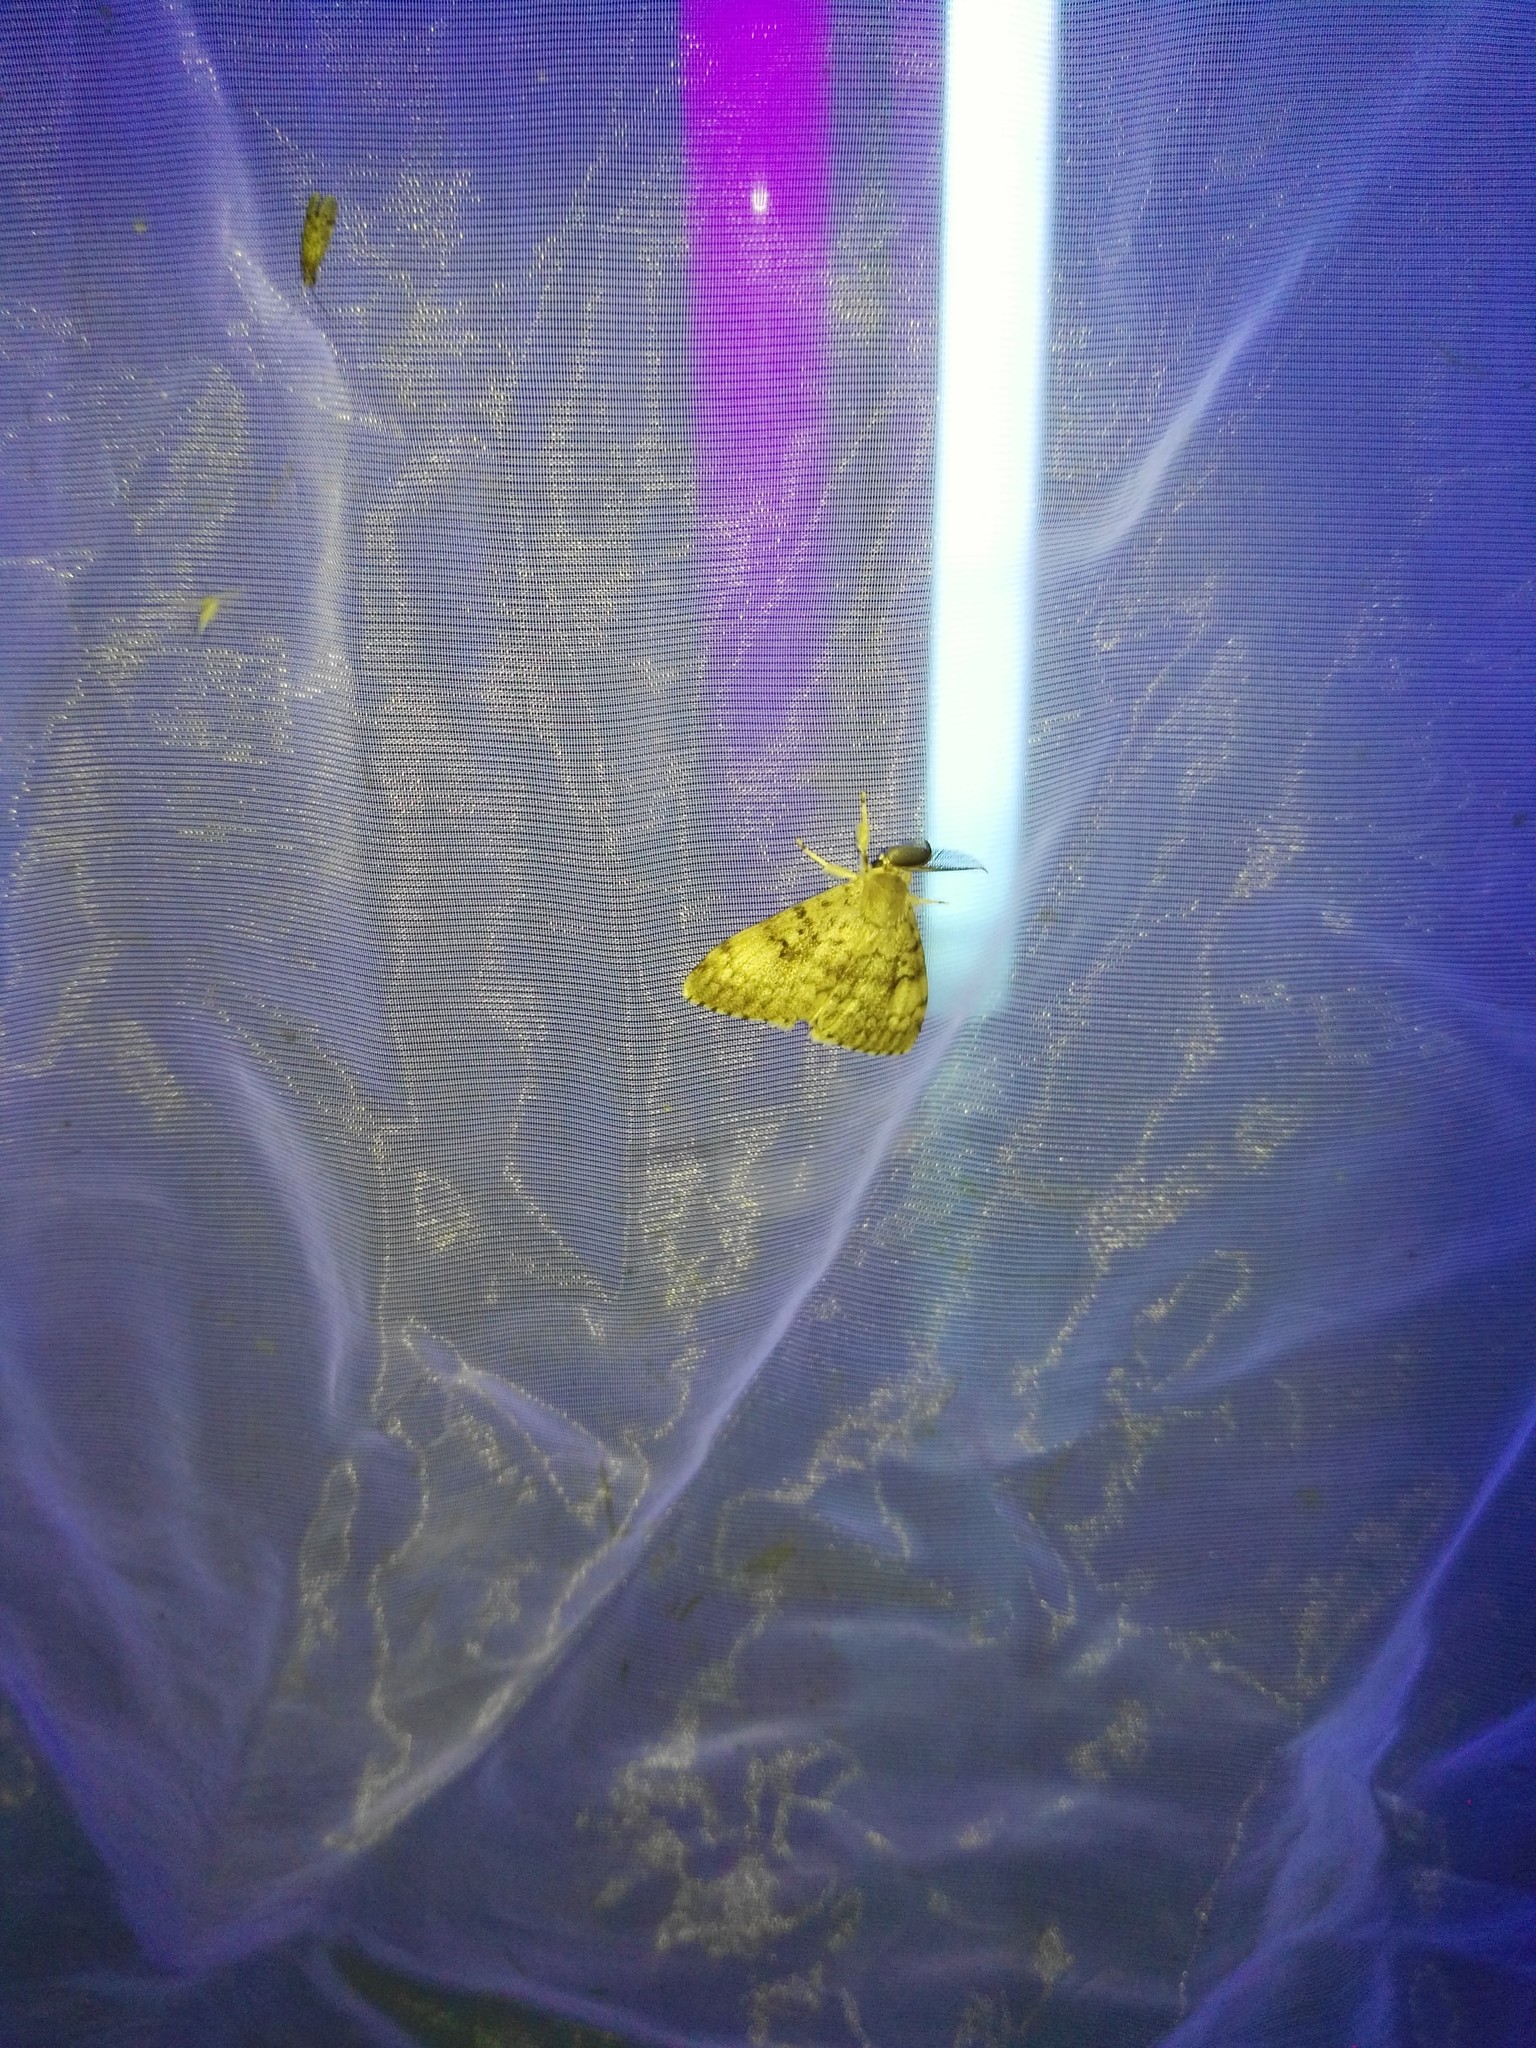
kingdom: Animalia
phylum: Arthropoda
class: Insecta
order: Lepidoptera
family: Erebidae
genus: Lymantria
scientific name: Lymantria dispar
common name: Gypsy moth
